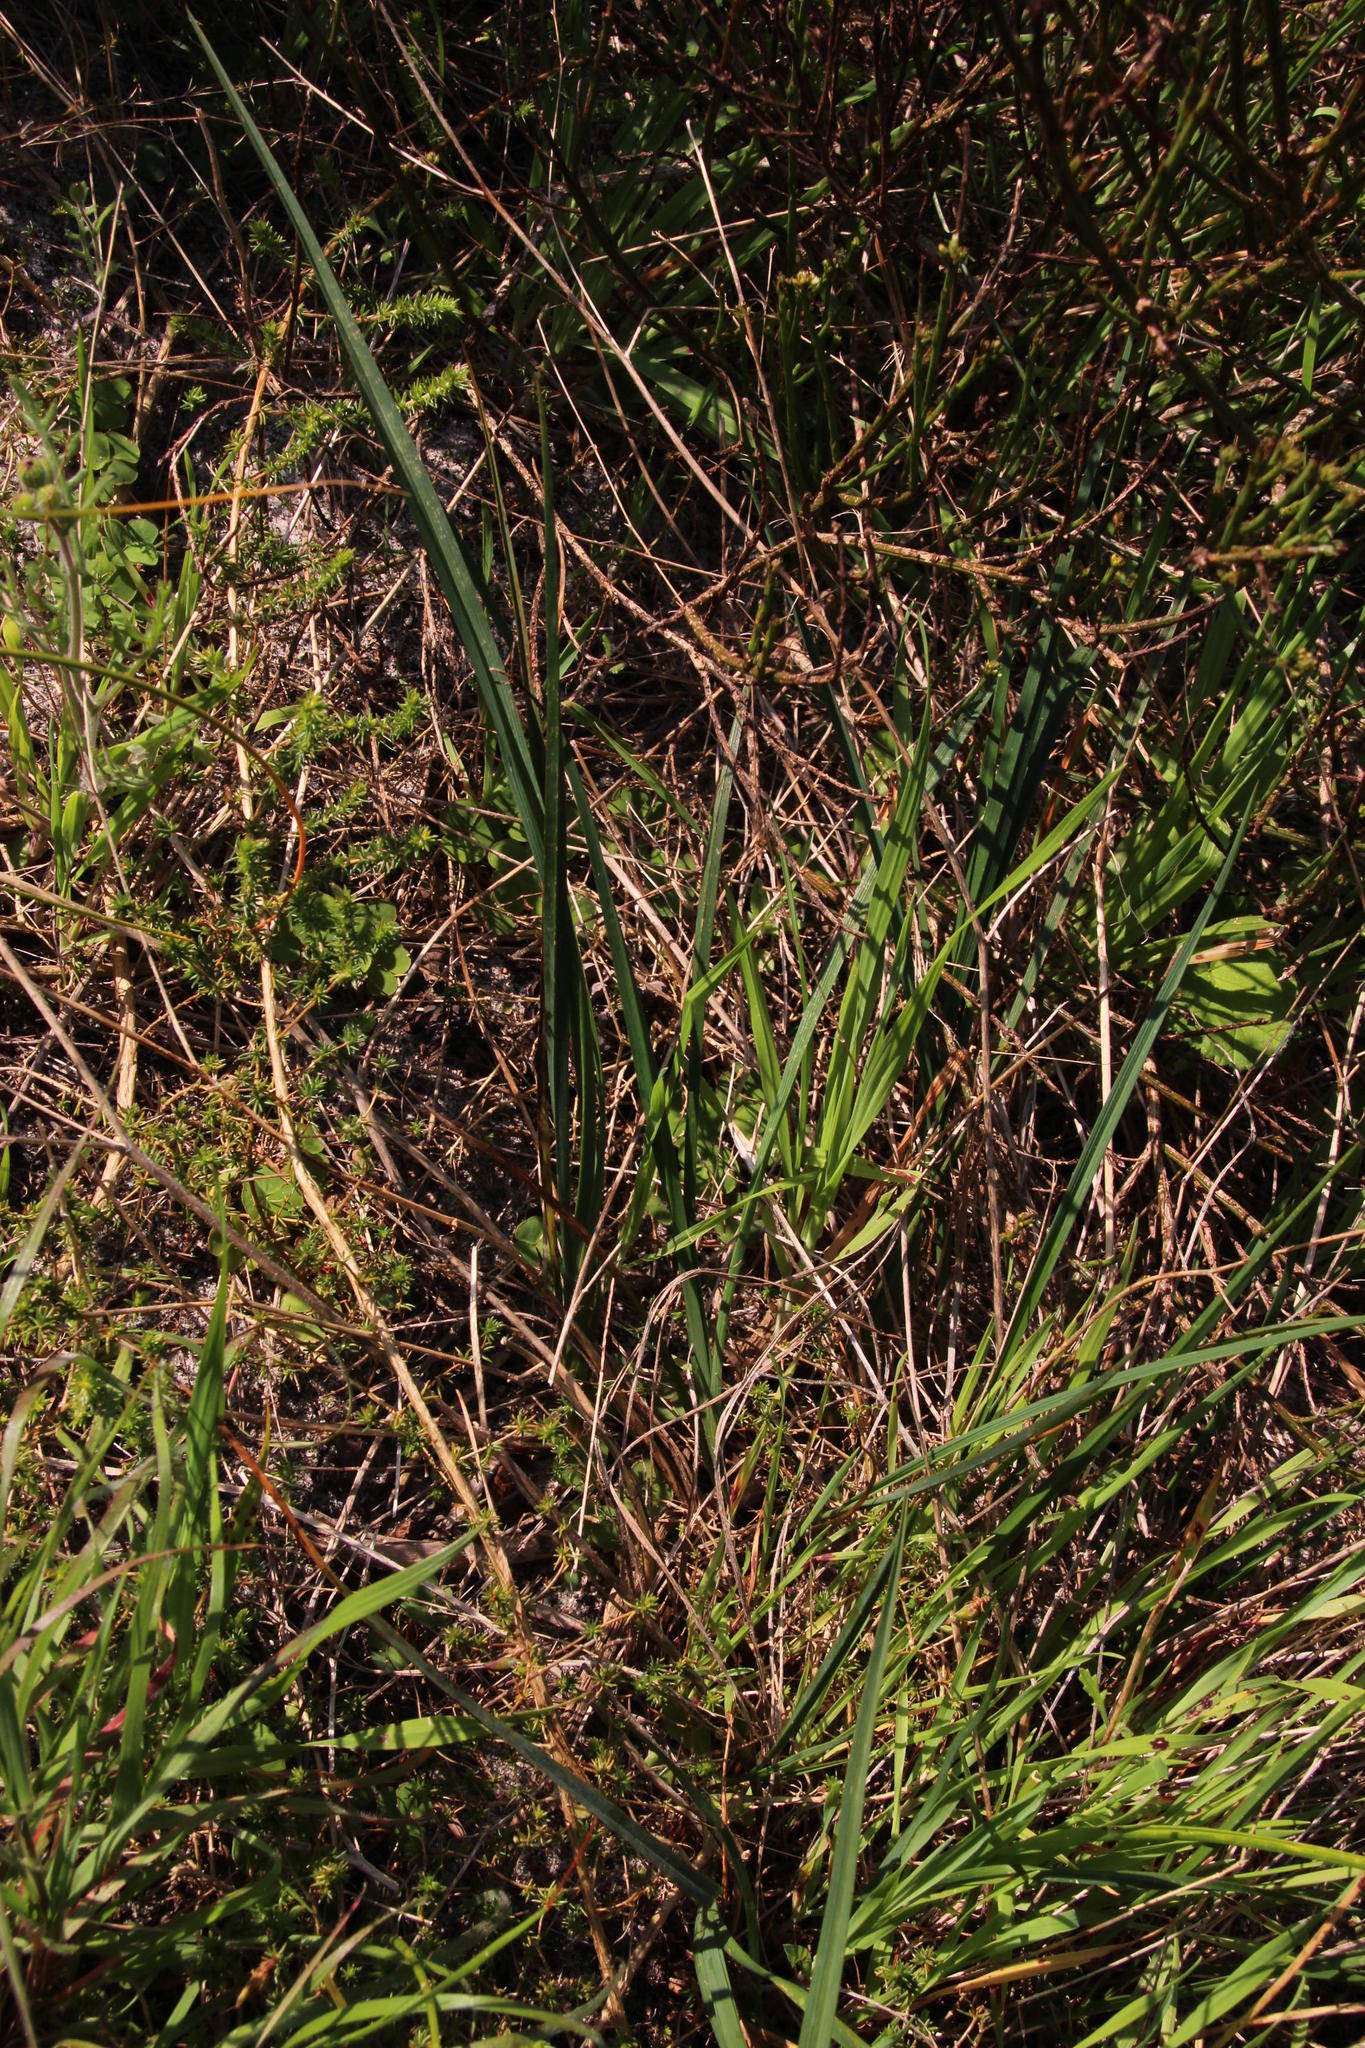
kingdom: Plantae
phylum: Tracheophyta
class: Magnoliopsida
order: Fabales
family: Fabaceae
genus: Aspalathus
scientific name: Aspalathus retroflexa
